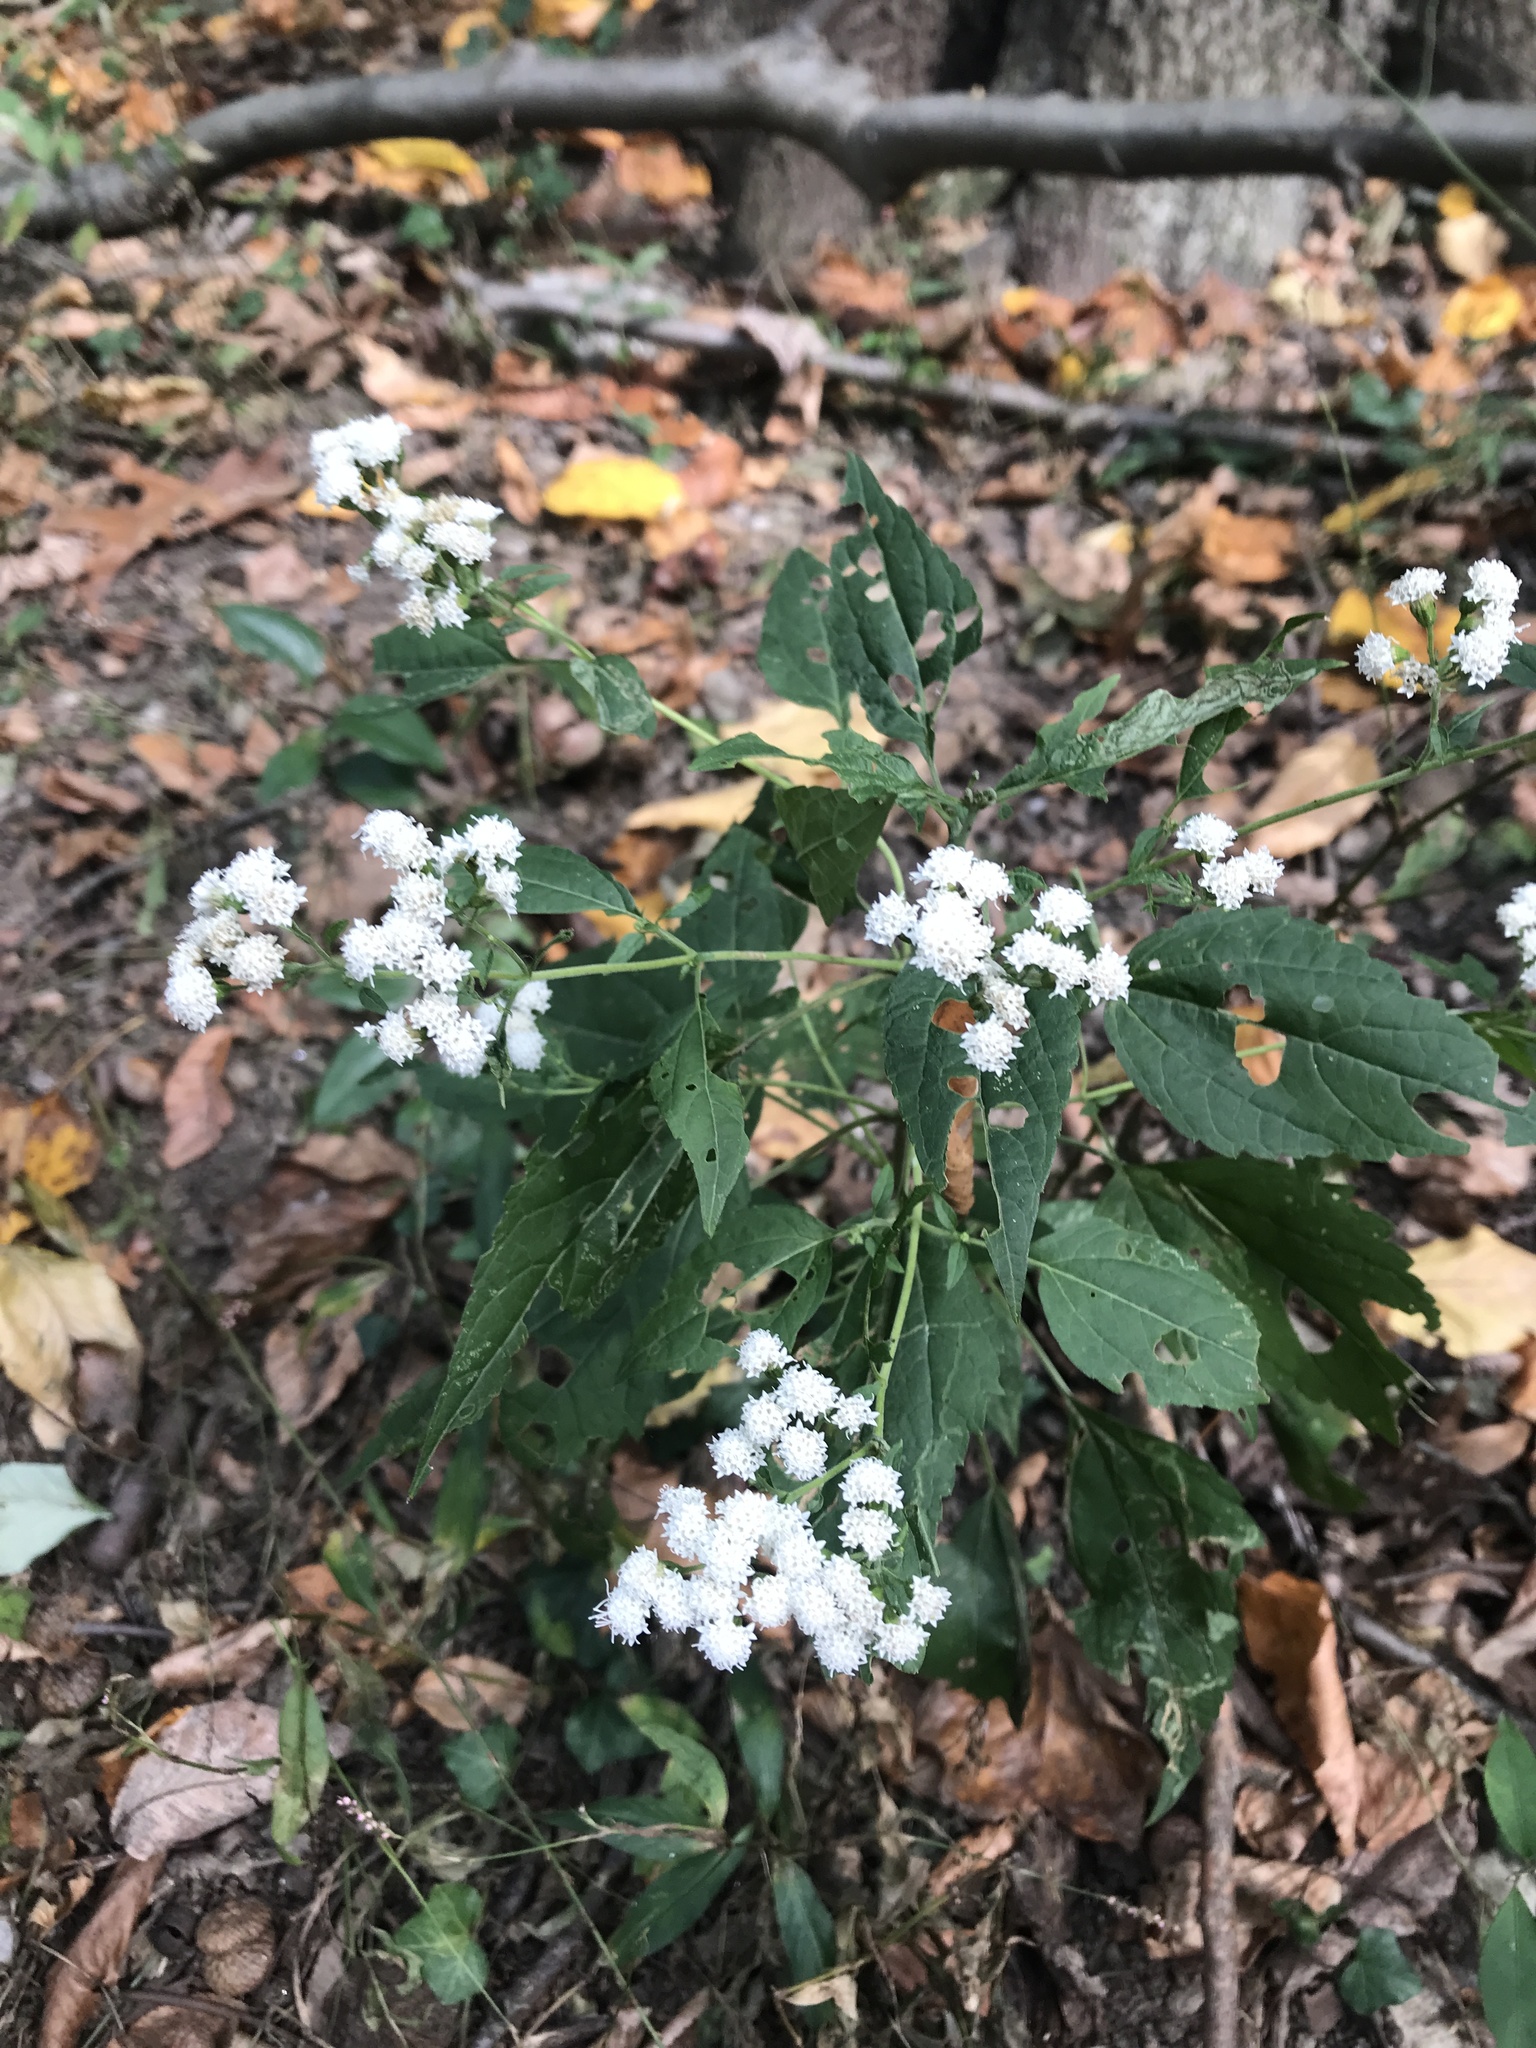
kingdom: Plantae
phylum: Tracheophyta
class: Magnoliopsida
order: Asterales
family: Asteraceae
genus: Ageratina
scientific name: Ageratina altissima
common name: White snakeroot
